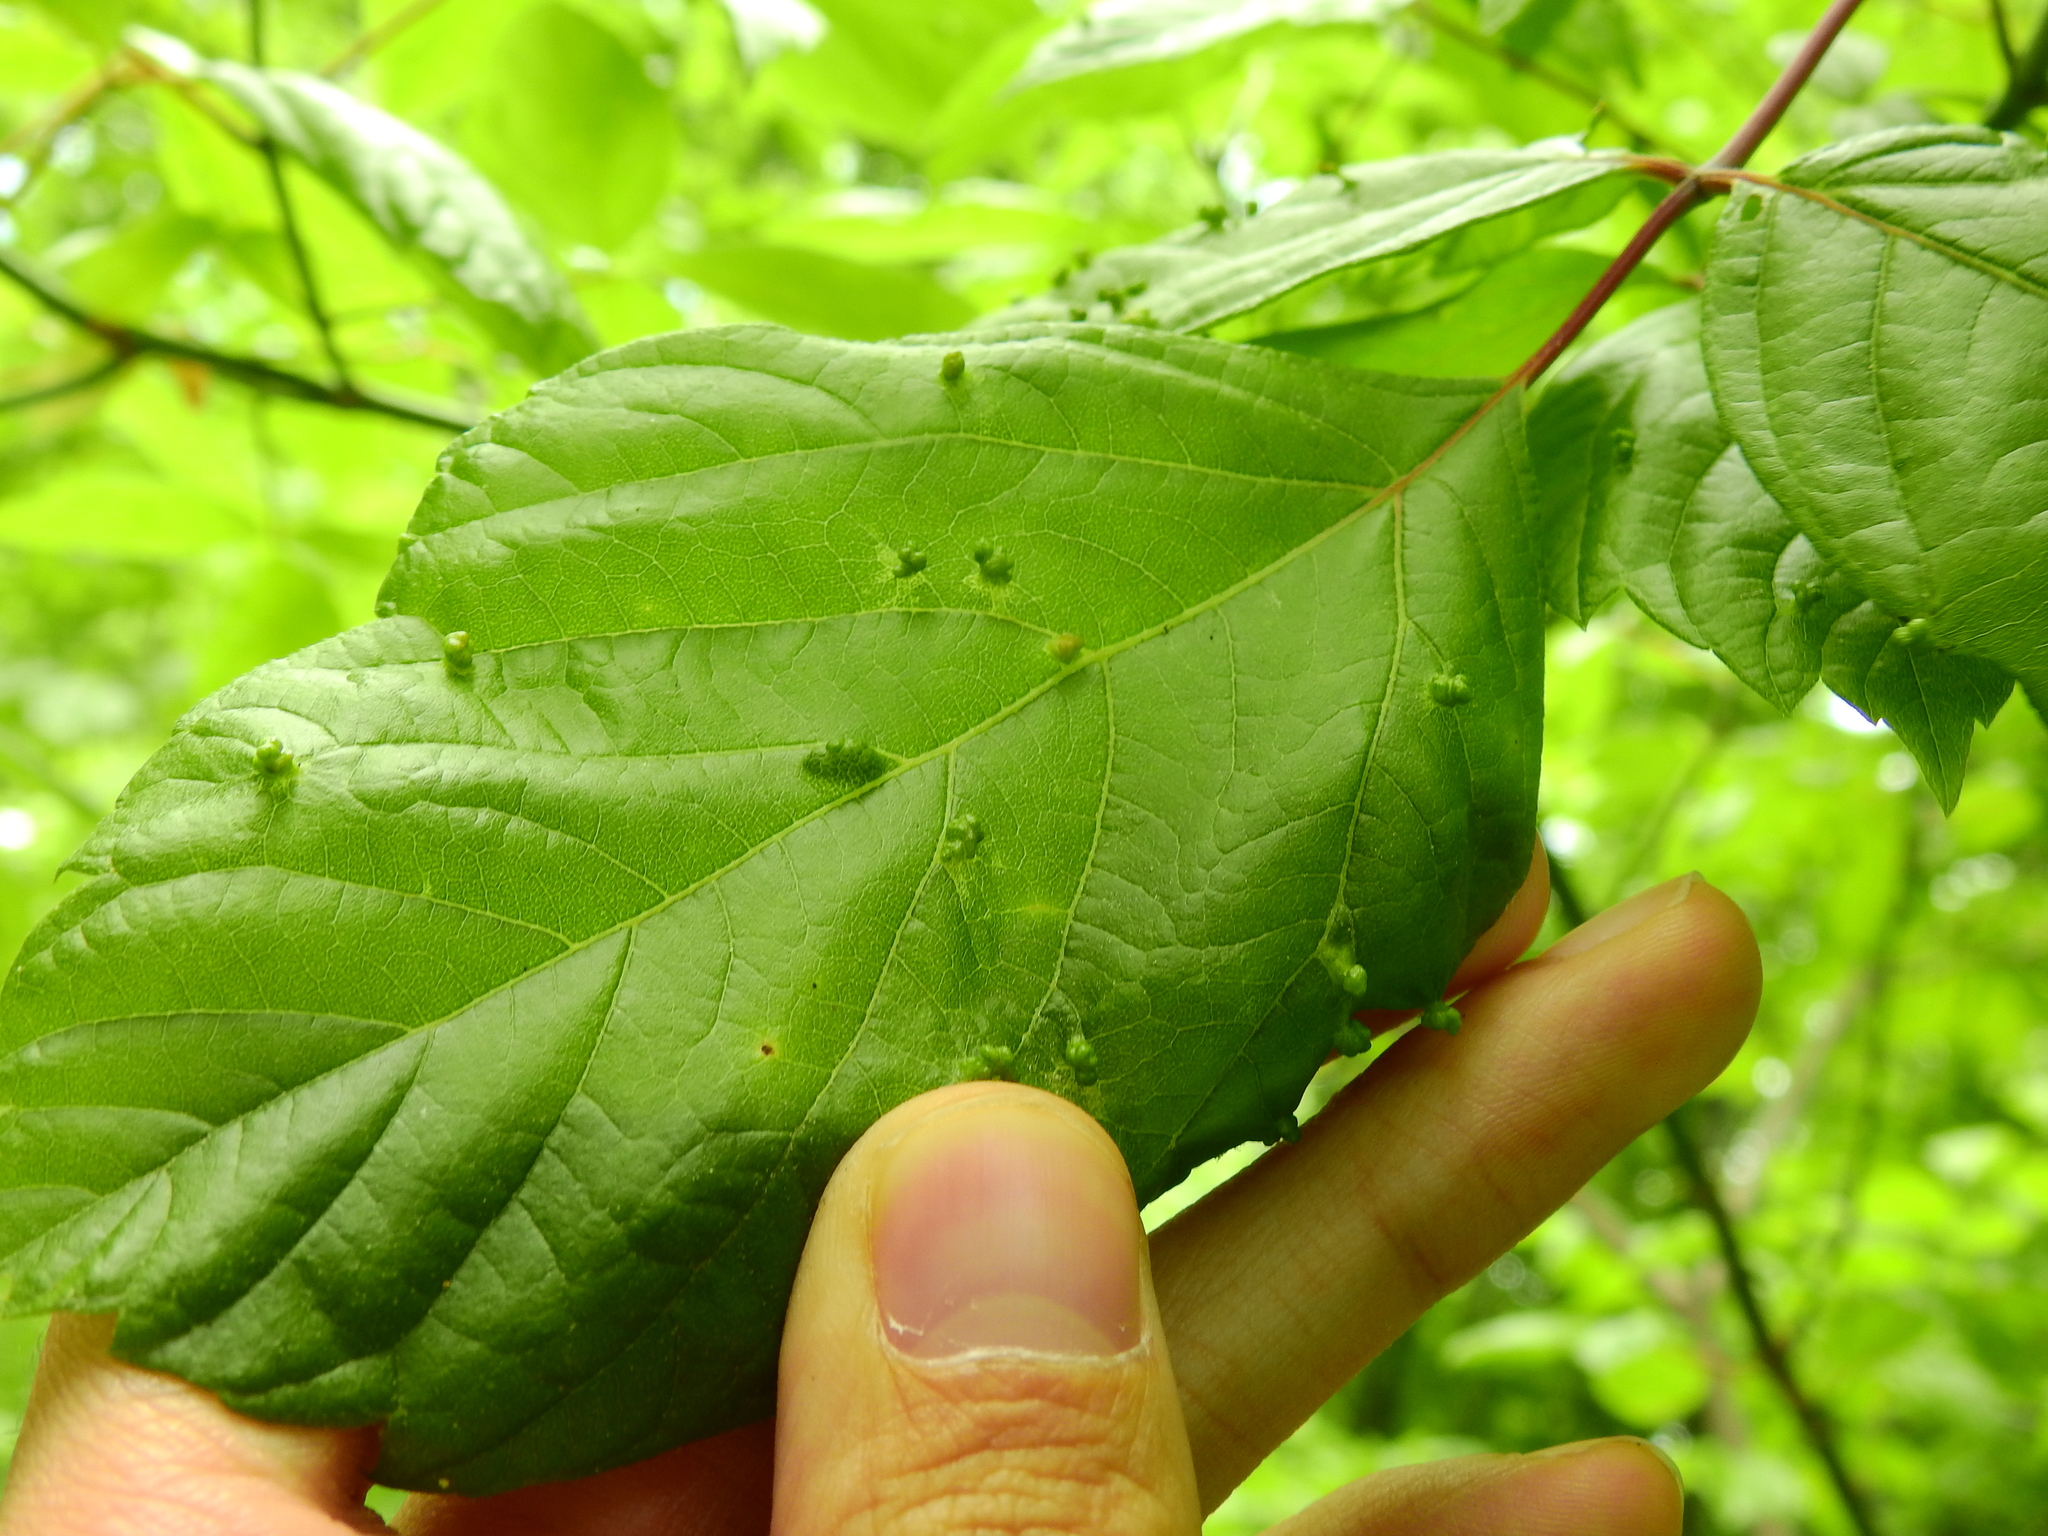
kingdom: Animalia
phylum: Arthropoda
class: Arachnida
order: Trombidiformes
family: Eriophyidae
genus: Aceria
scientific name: Aceria
